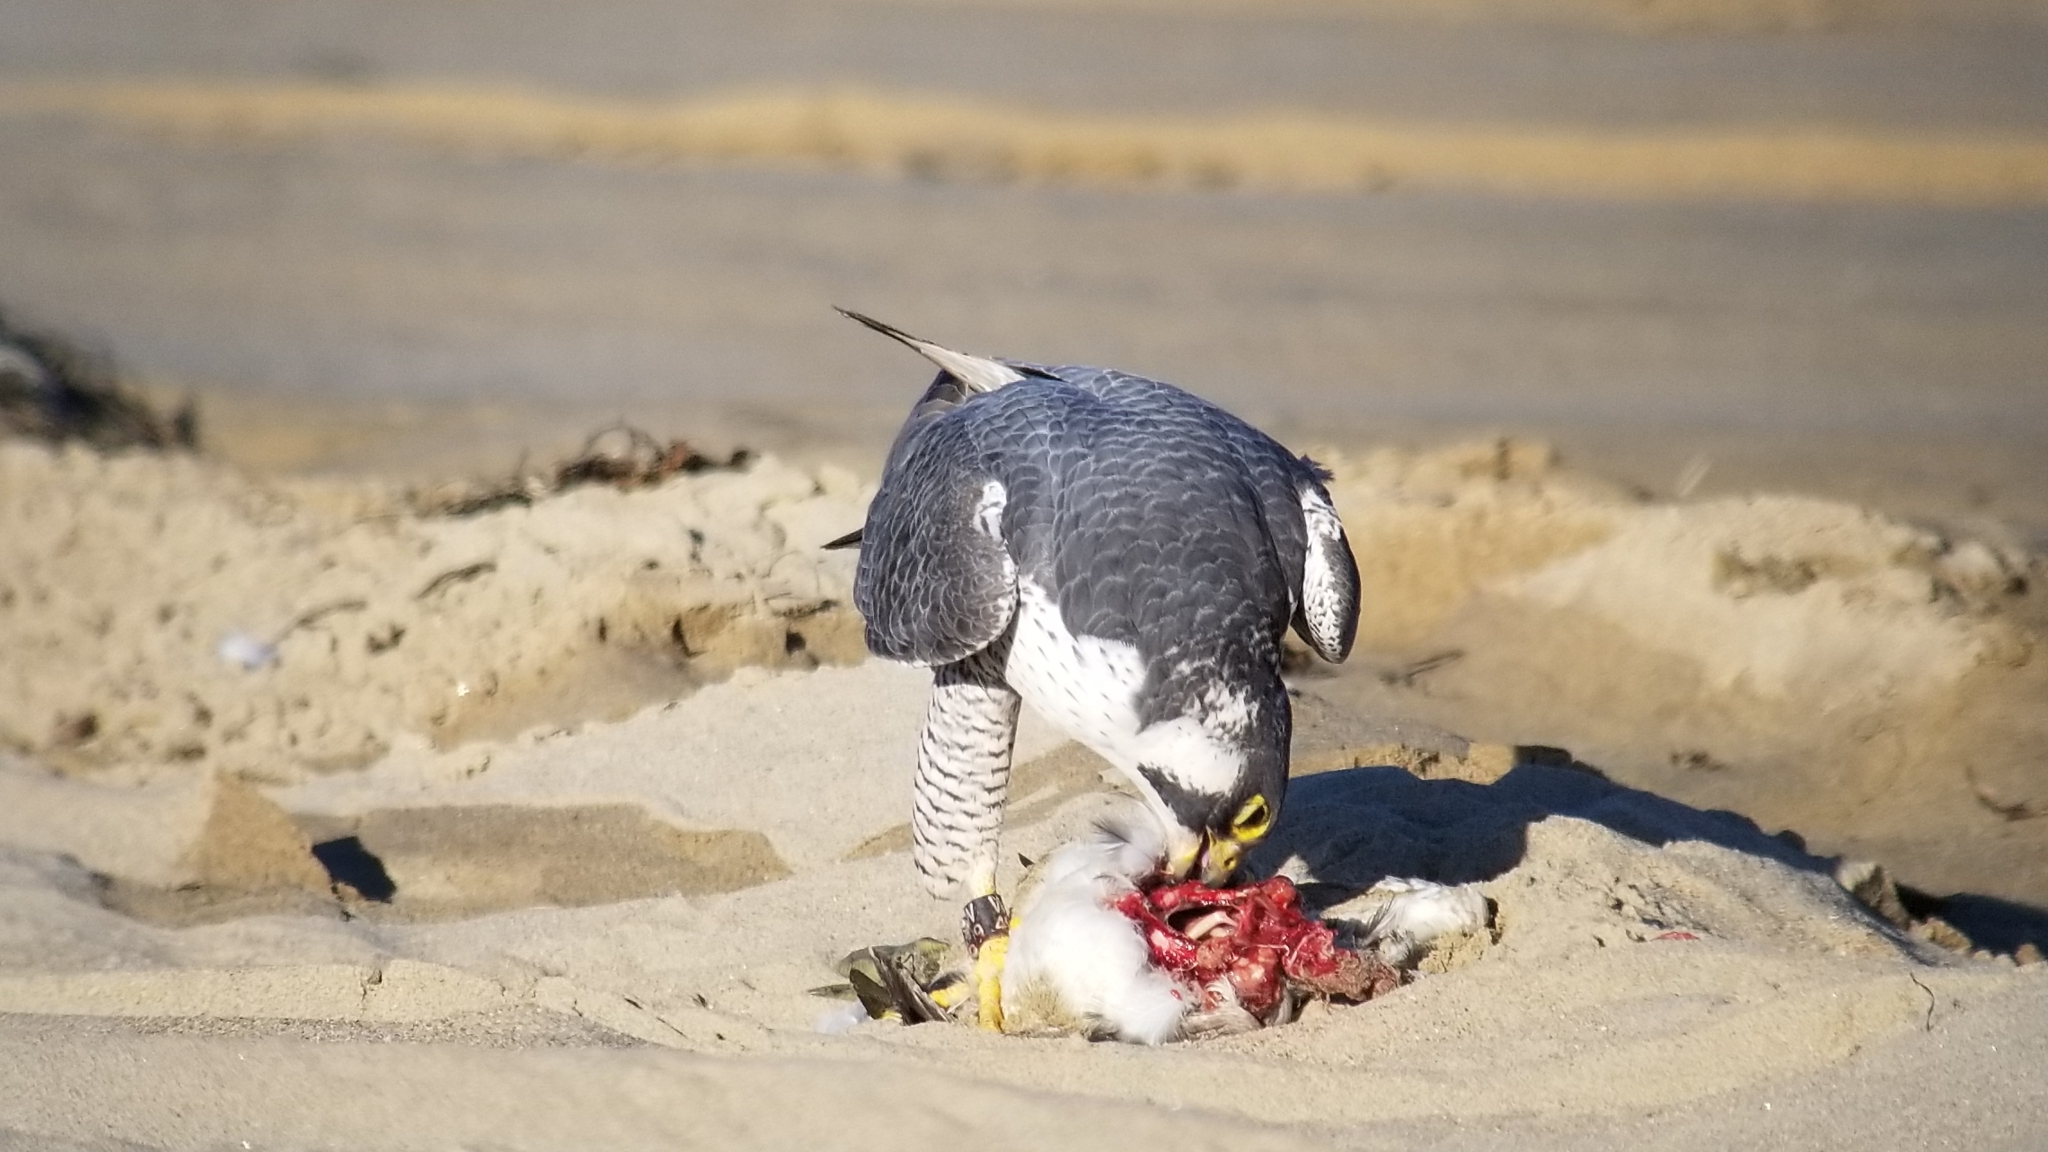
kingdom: Animalia
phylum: Chordata
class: Aves
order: Falconiformes
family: Falconidae
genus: Falco
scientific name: Falco peregrinus
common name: Peregrine falcon
